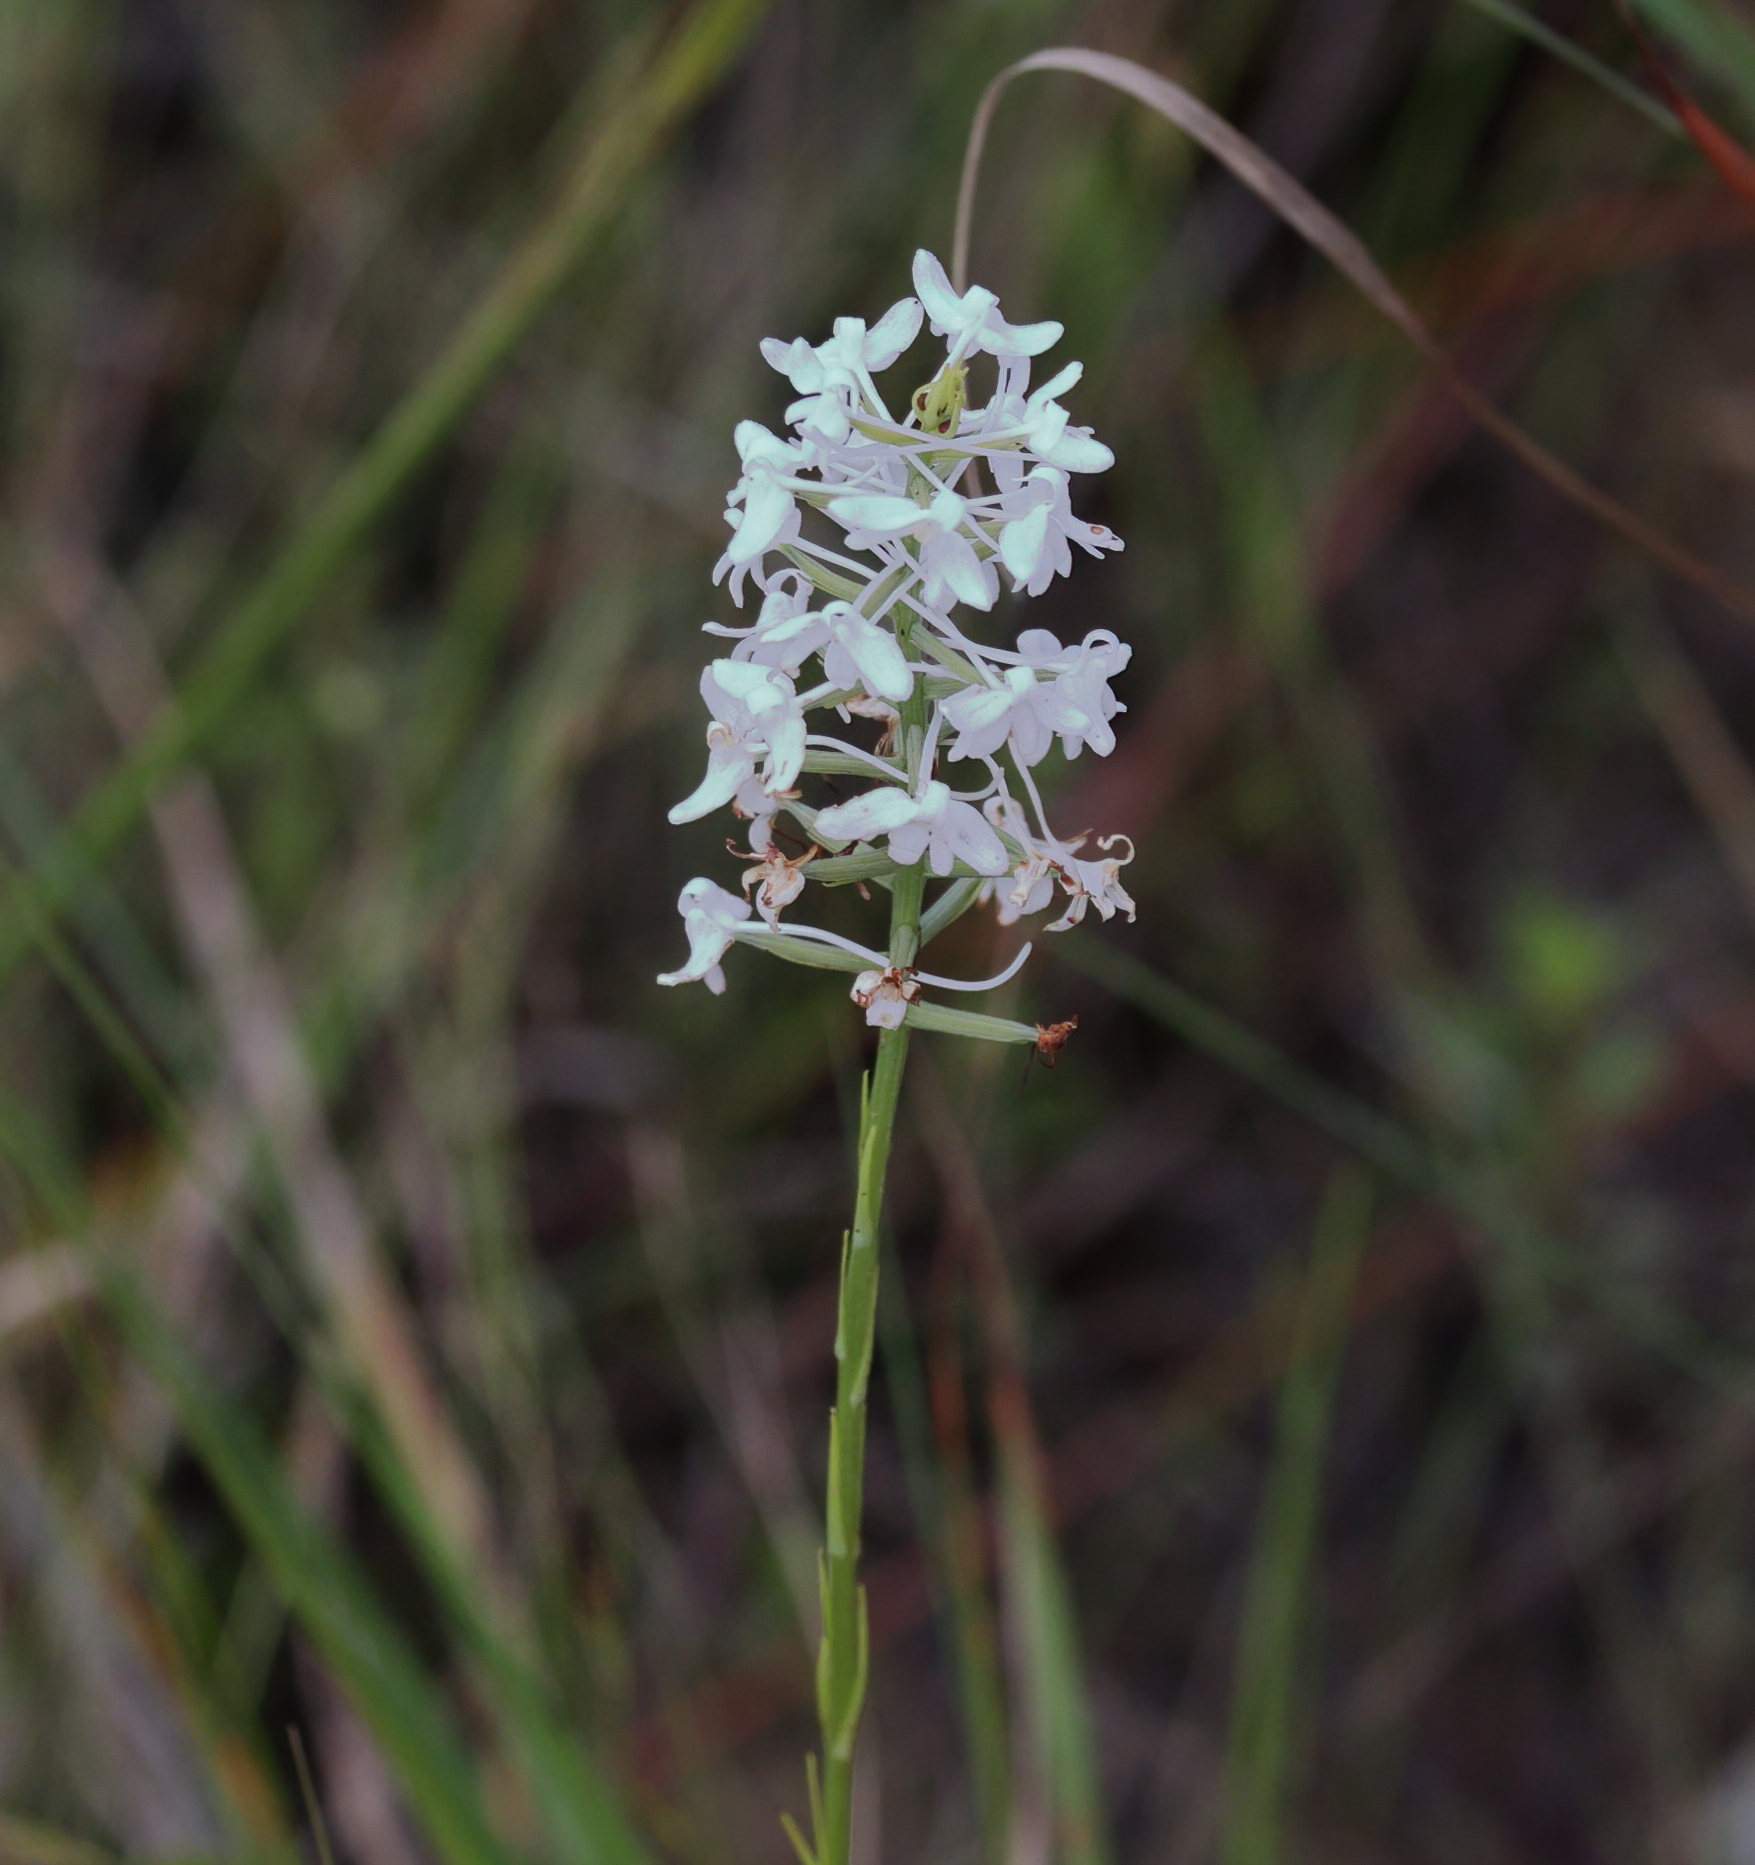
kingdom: Plantae
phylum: Tracheophyta
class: Liliopsida
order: Asparagales
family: Orchidaceae
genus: Platanthera
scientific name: Platanthera nivea
